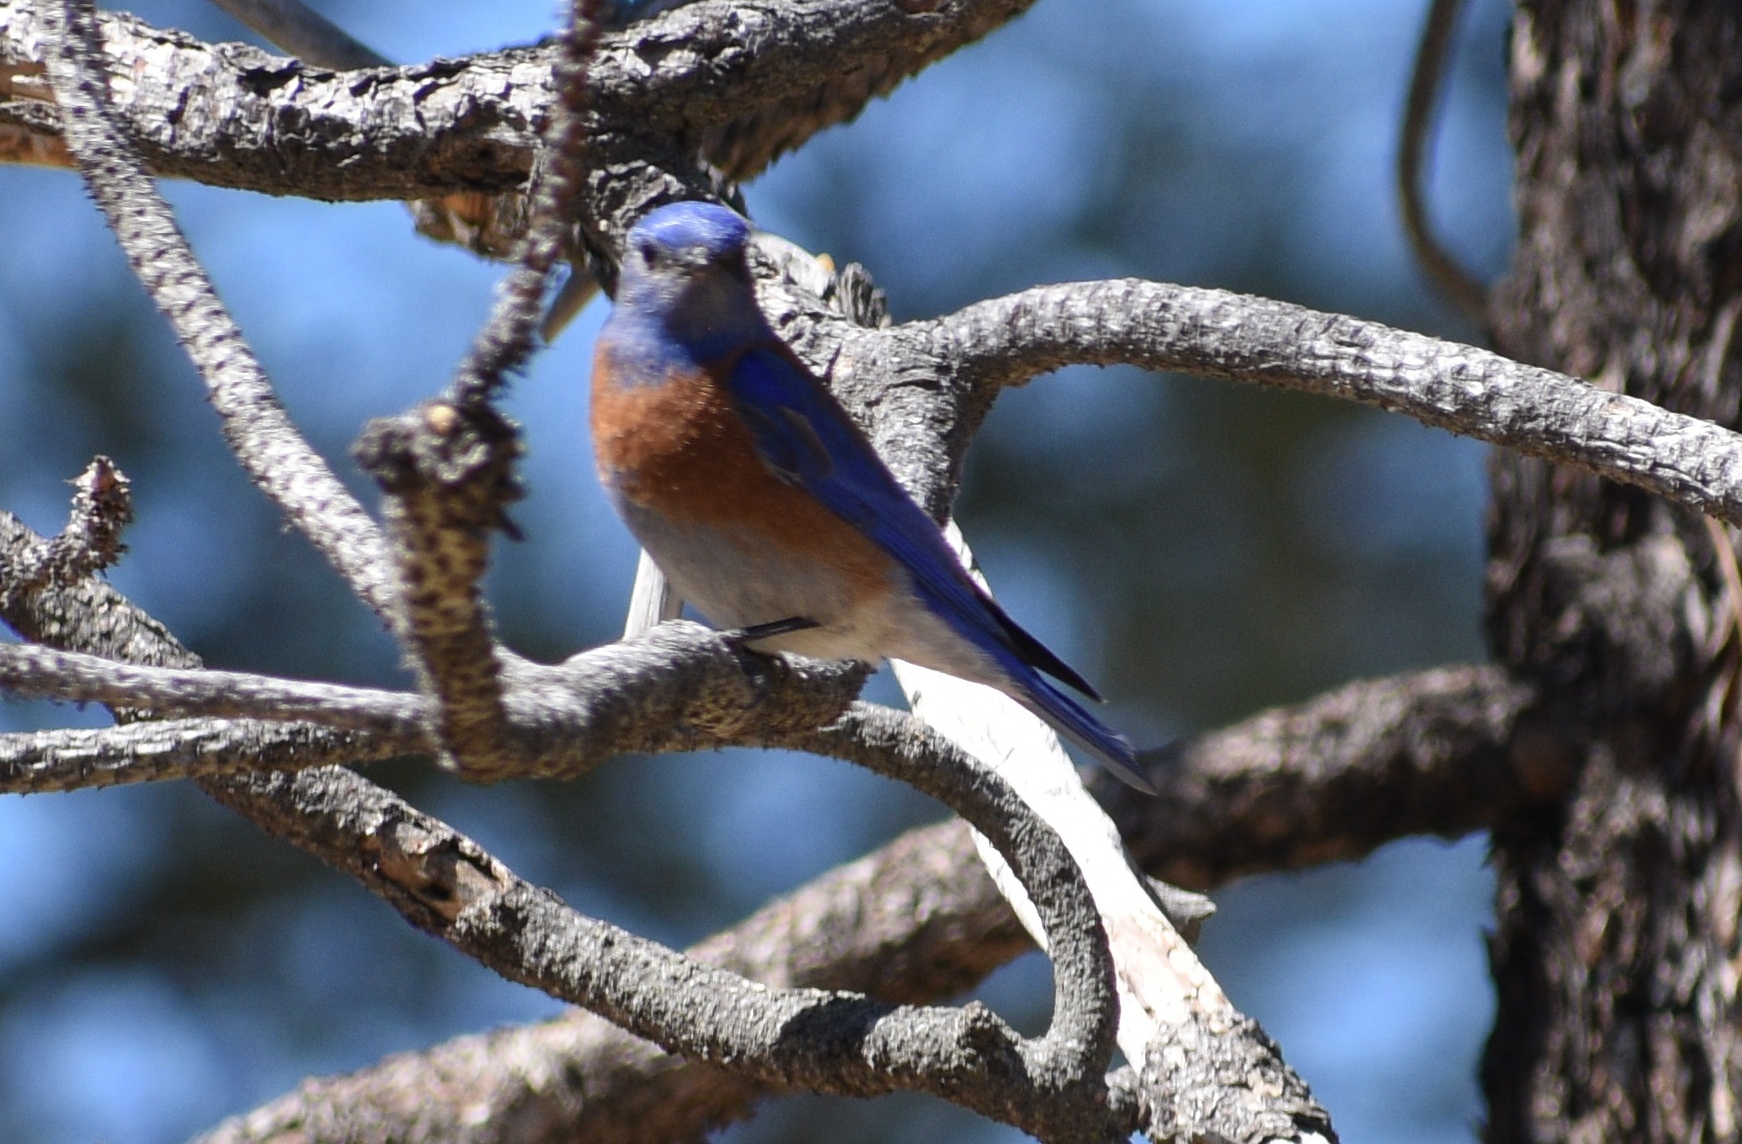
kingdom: Animalia
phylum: Chordata
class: Aves
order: Passeriformes
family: Turdidae
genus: Sialia
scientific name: Sialia mexicana
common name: Western bluebird
